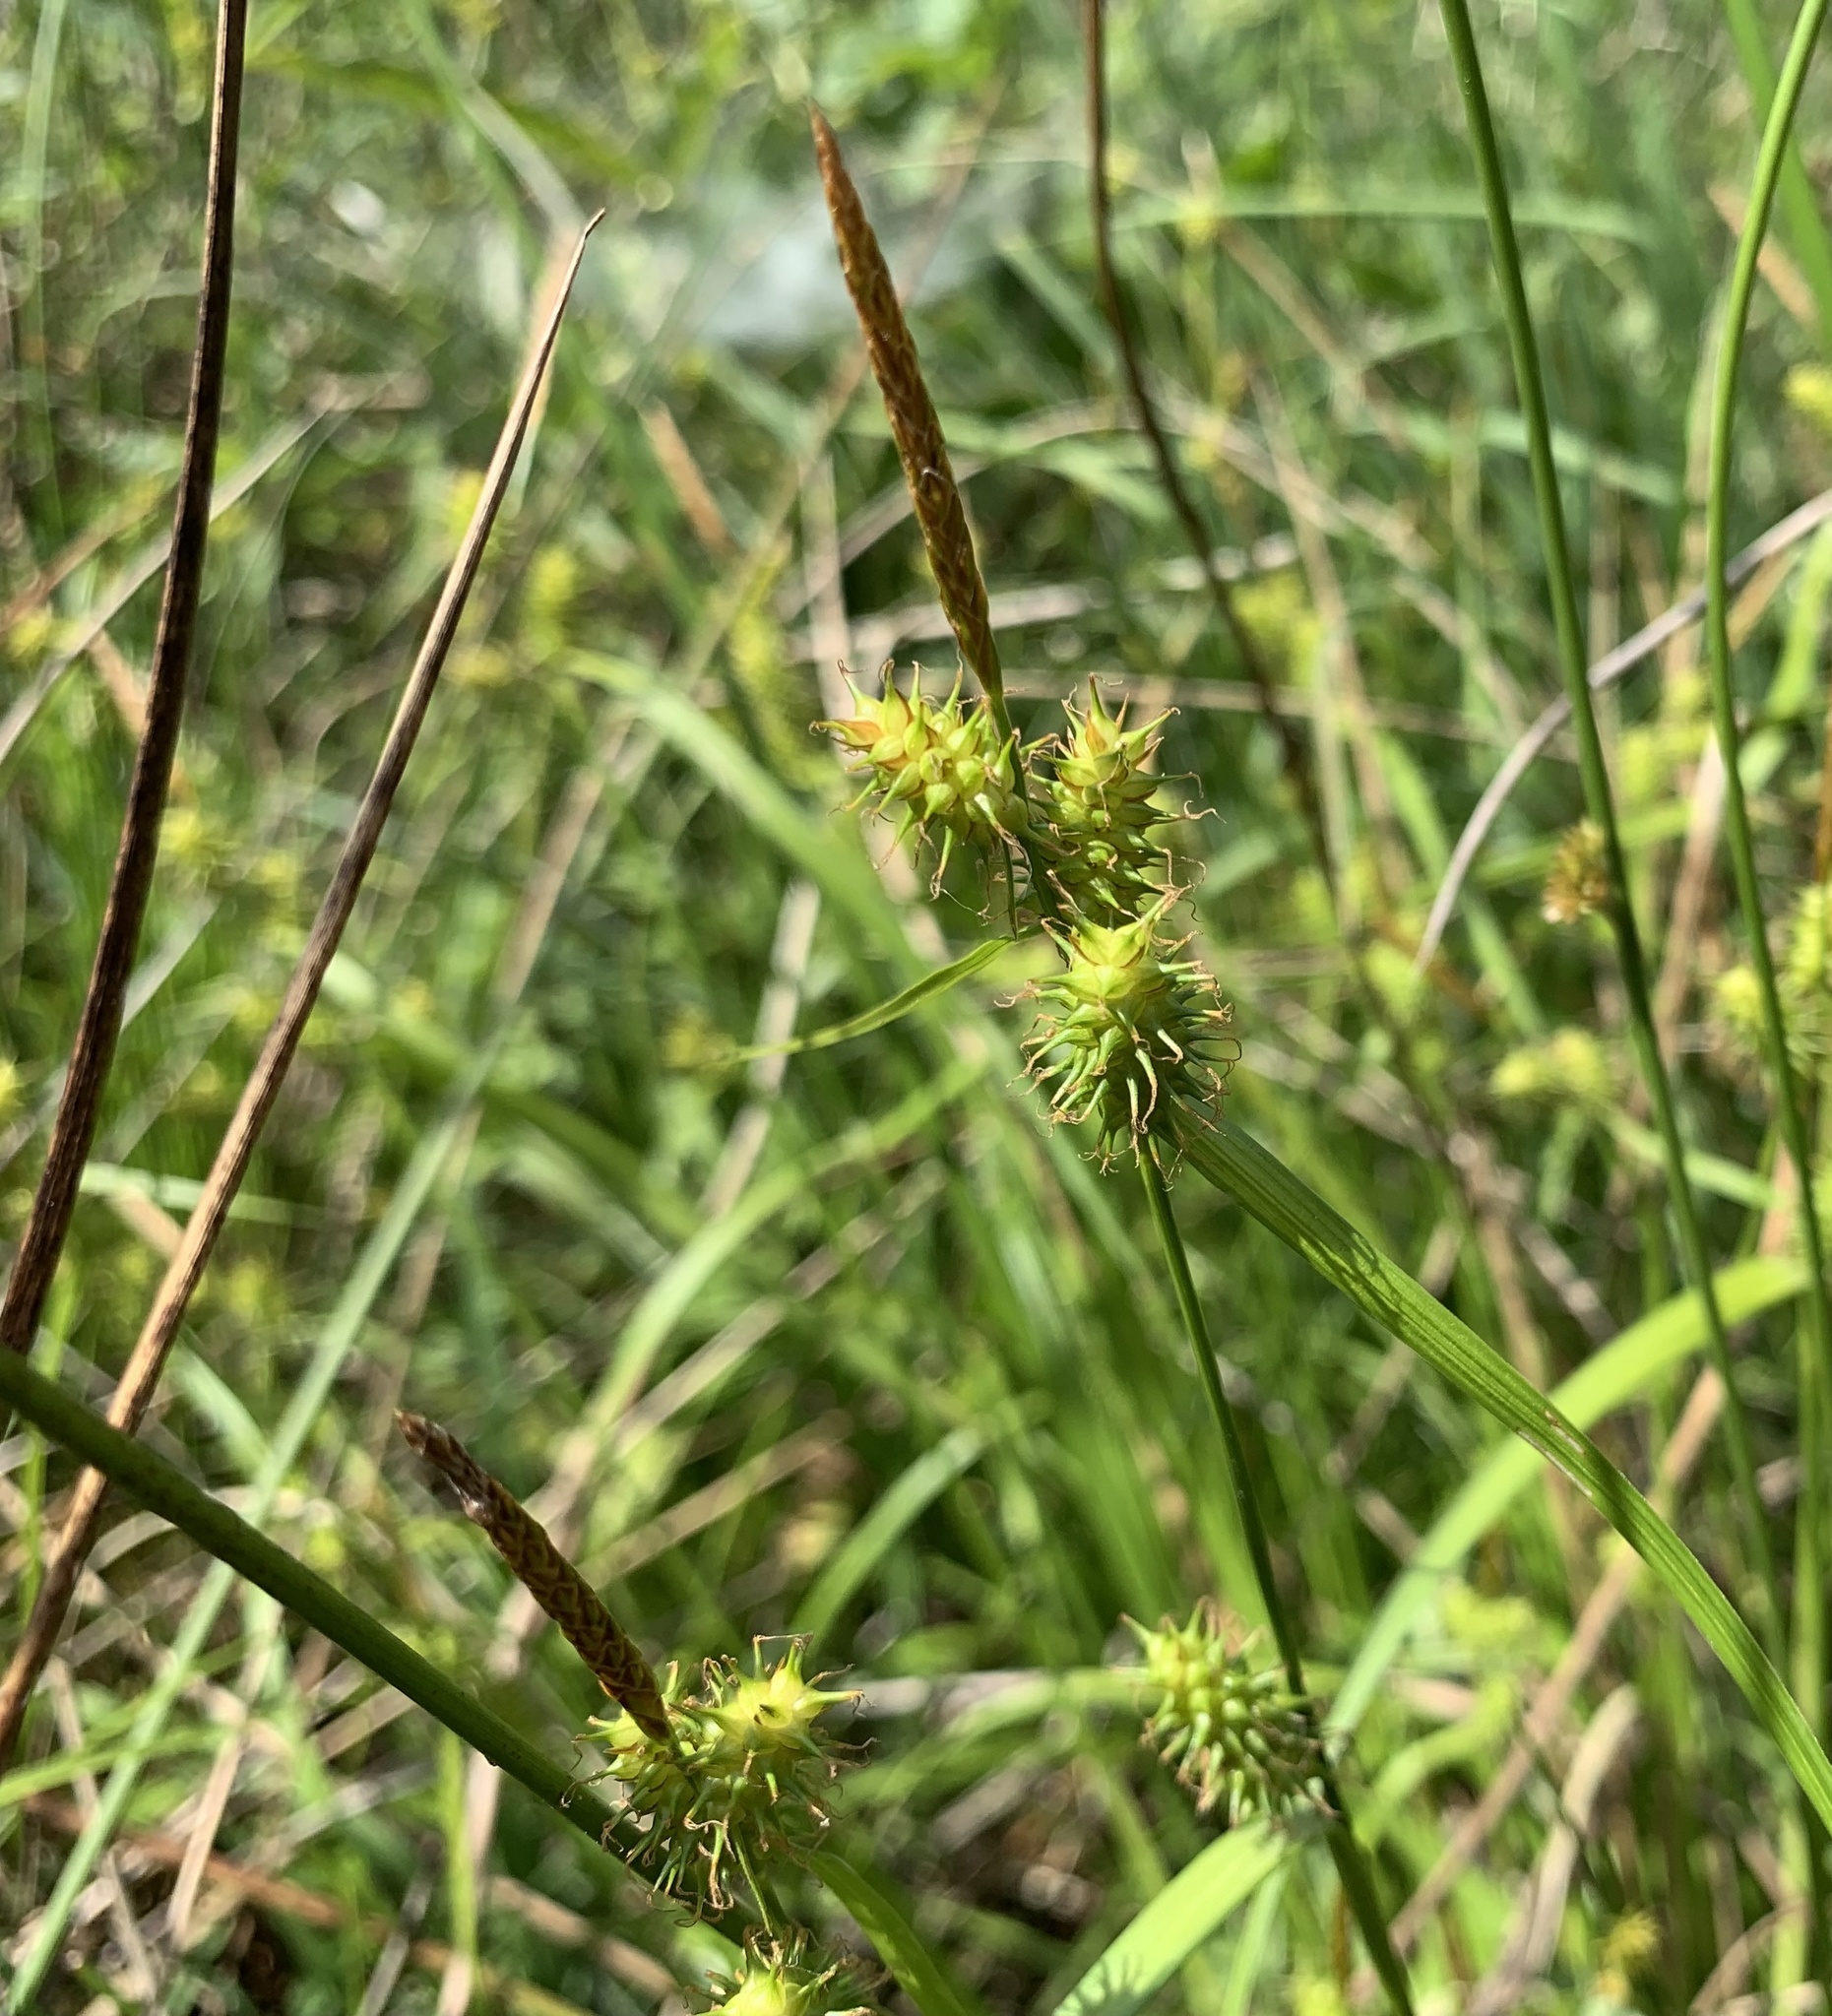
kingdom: Plantae
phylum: Tracheophyta
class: Liliopsida
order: Poales
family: Cyperaceae
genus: Carex
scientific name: Carex flava
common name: Large yellow-sedge
